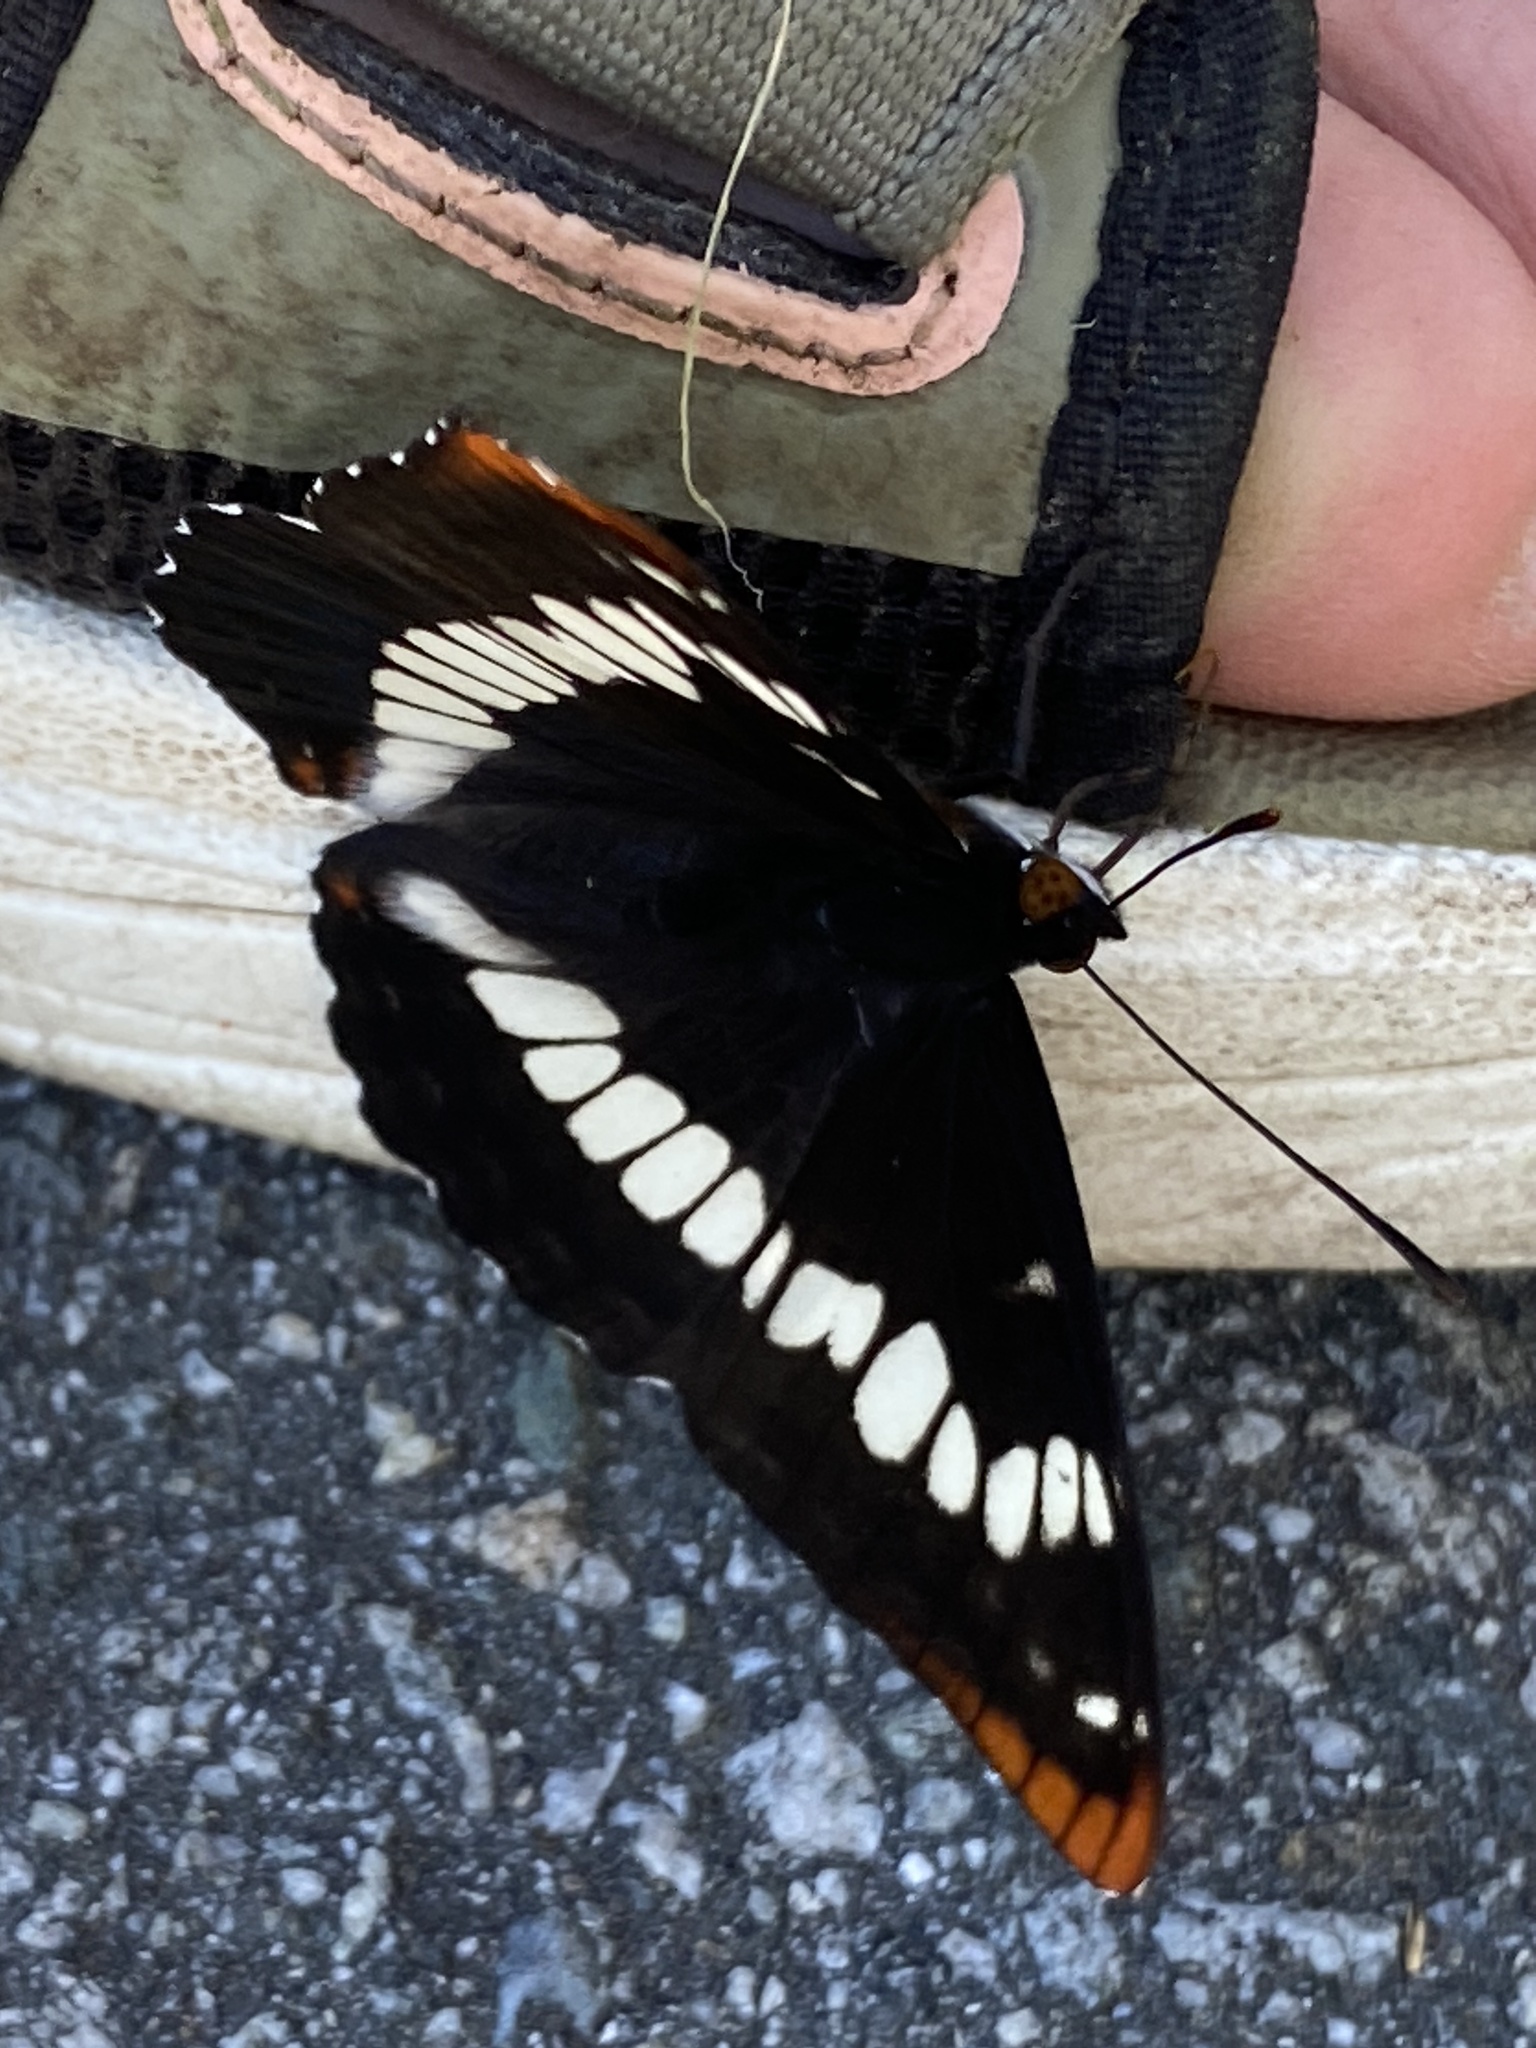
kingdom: Animalia
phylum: Arthropoda
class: Insecta
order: Lepidoptera
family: Nymphalidae
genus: Limenitis
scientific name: Limenitis lorquini
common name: Lorquin's admiral
